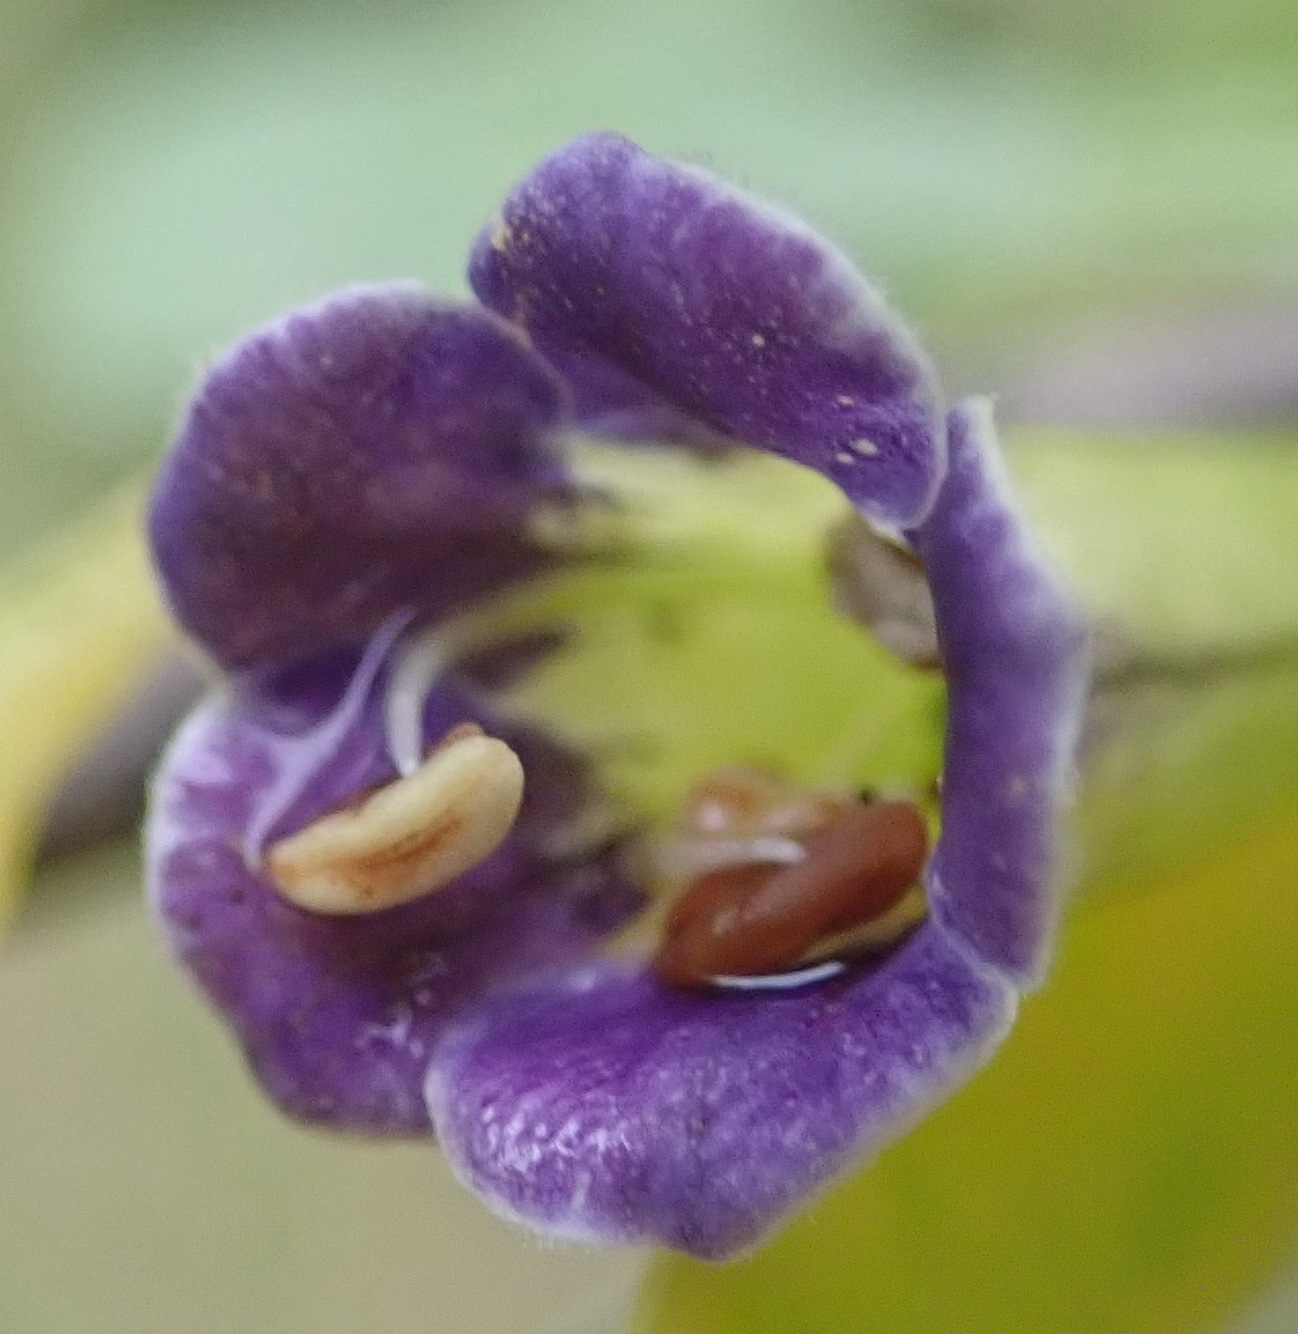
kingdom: Plantae
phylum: Tracheophyta
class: Magnoliopsida
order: Solanales
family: Solanaceae
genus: Lycium
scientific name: Lycium oxycarpum
